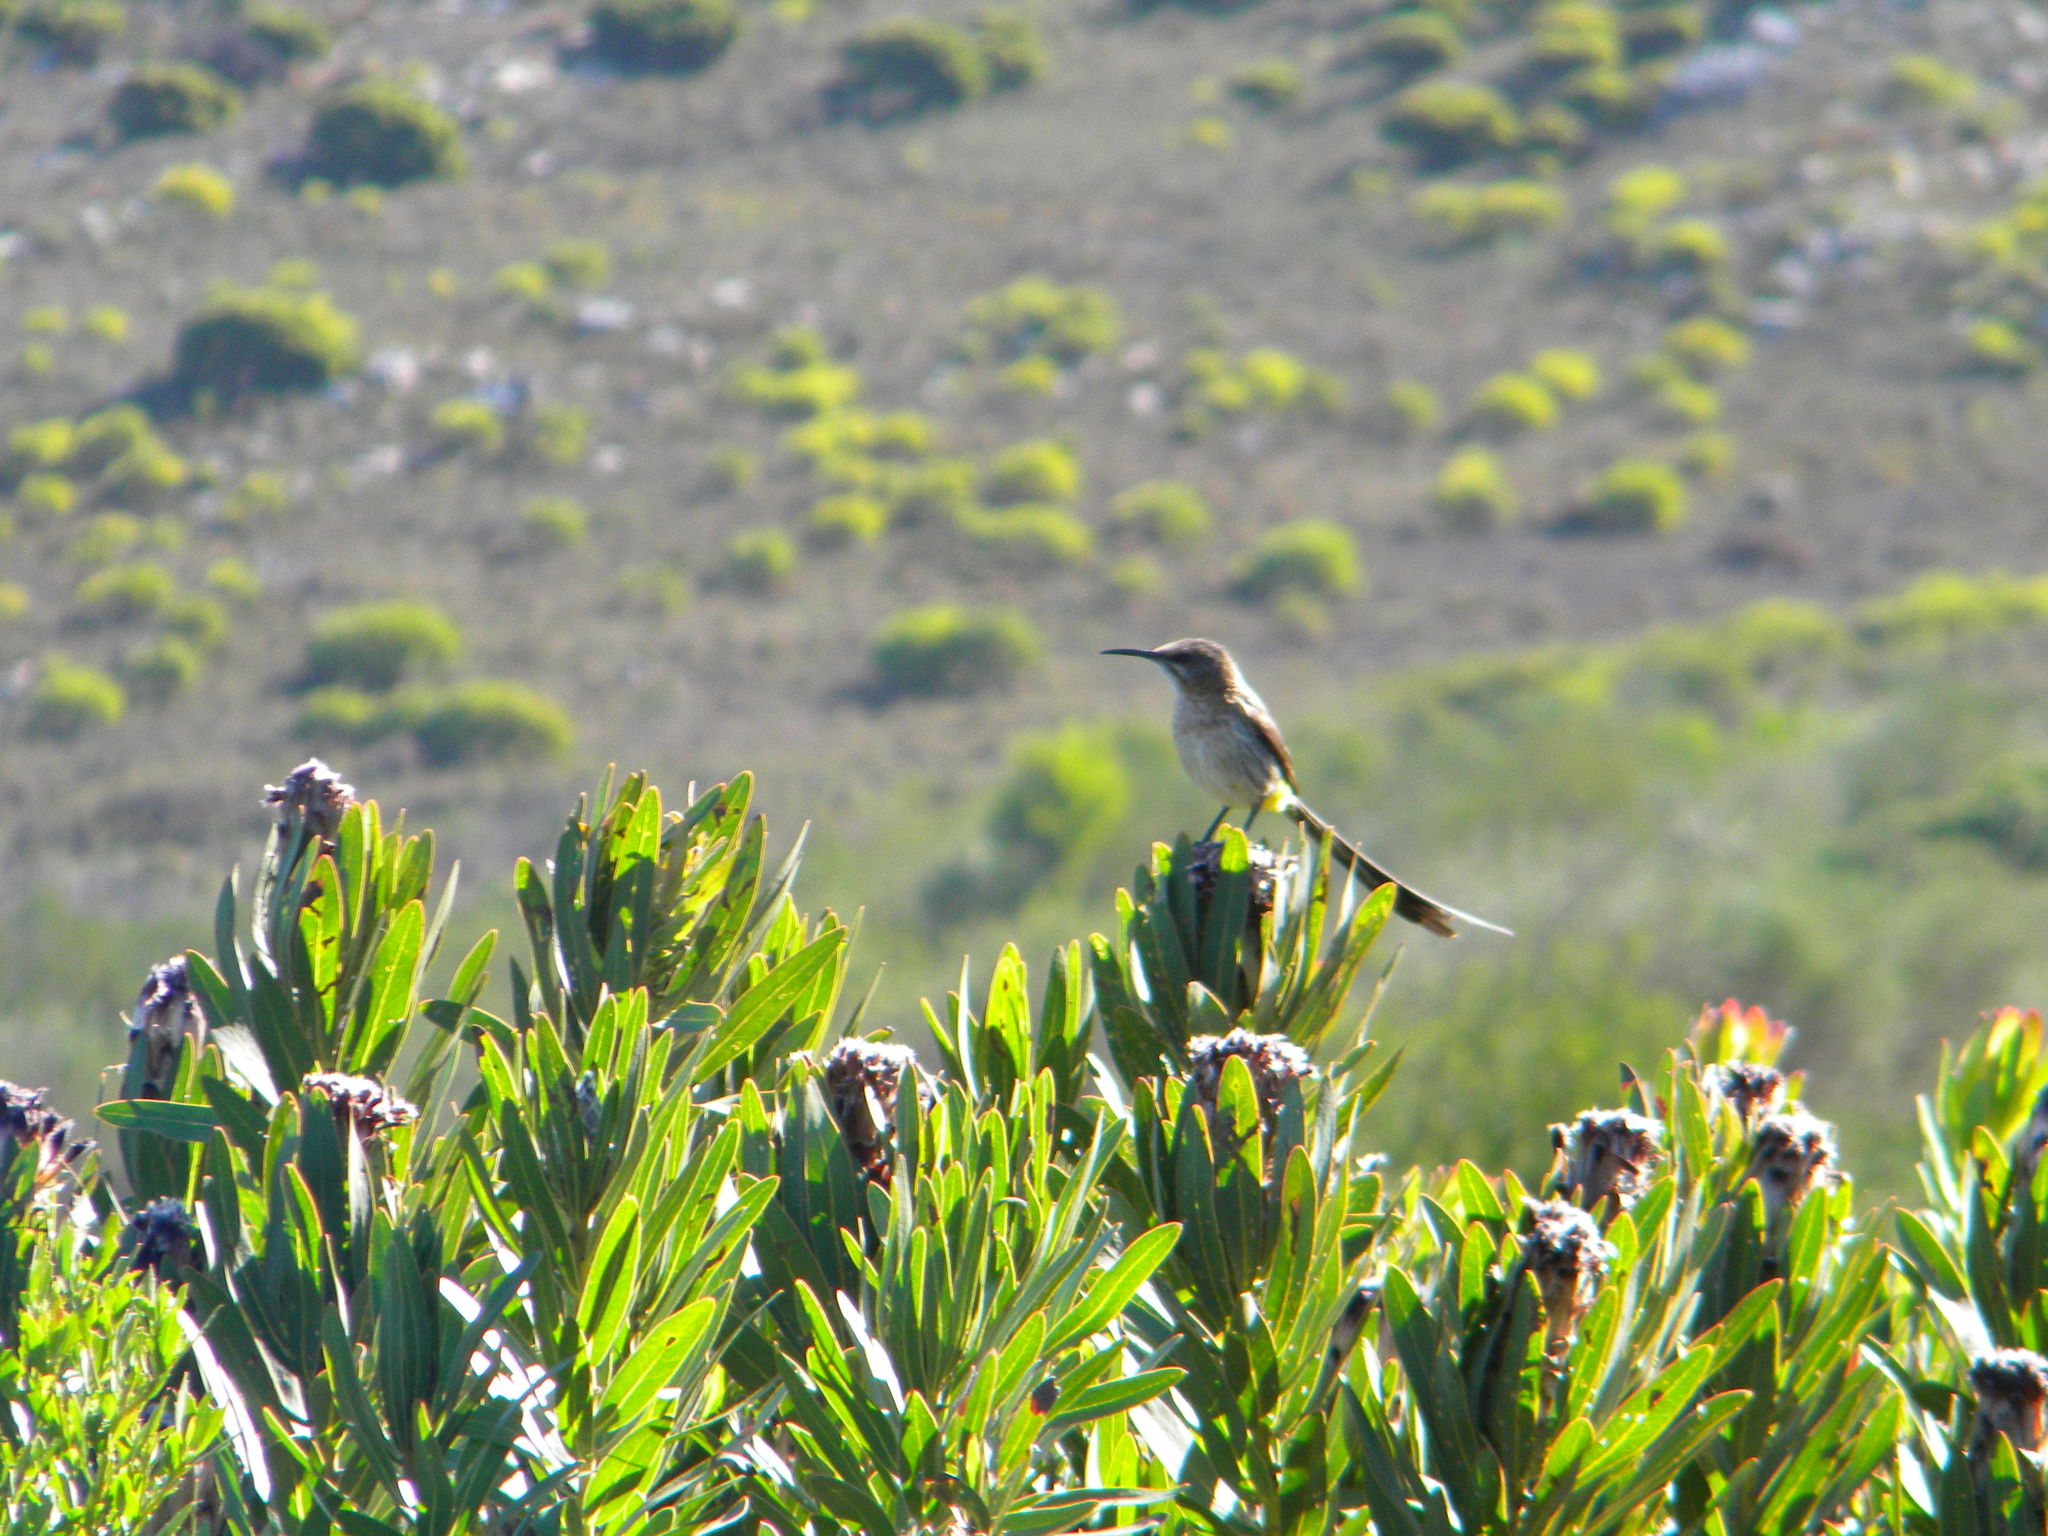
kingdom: Animalia
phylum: Chordata
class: Aves
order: Passeriformes
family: Promeropidae
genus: Promerops
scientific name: Promerops cafer
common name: Cape sugarbird
